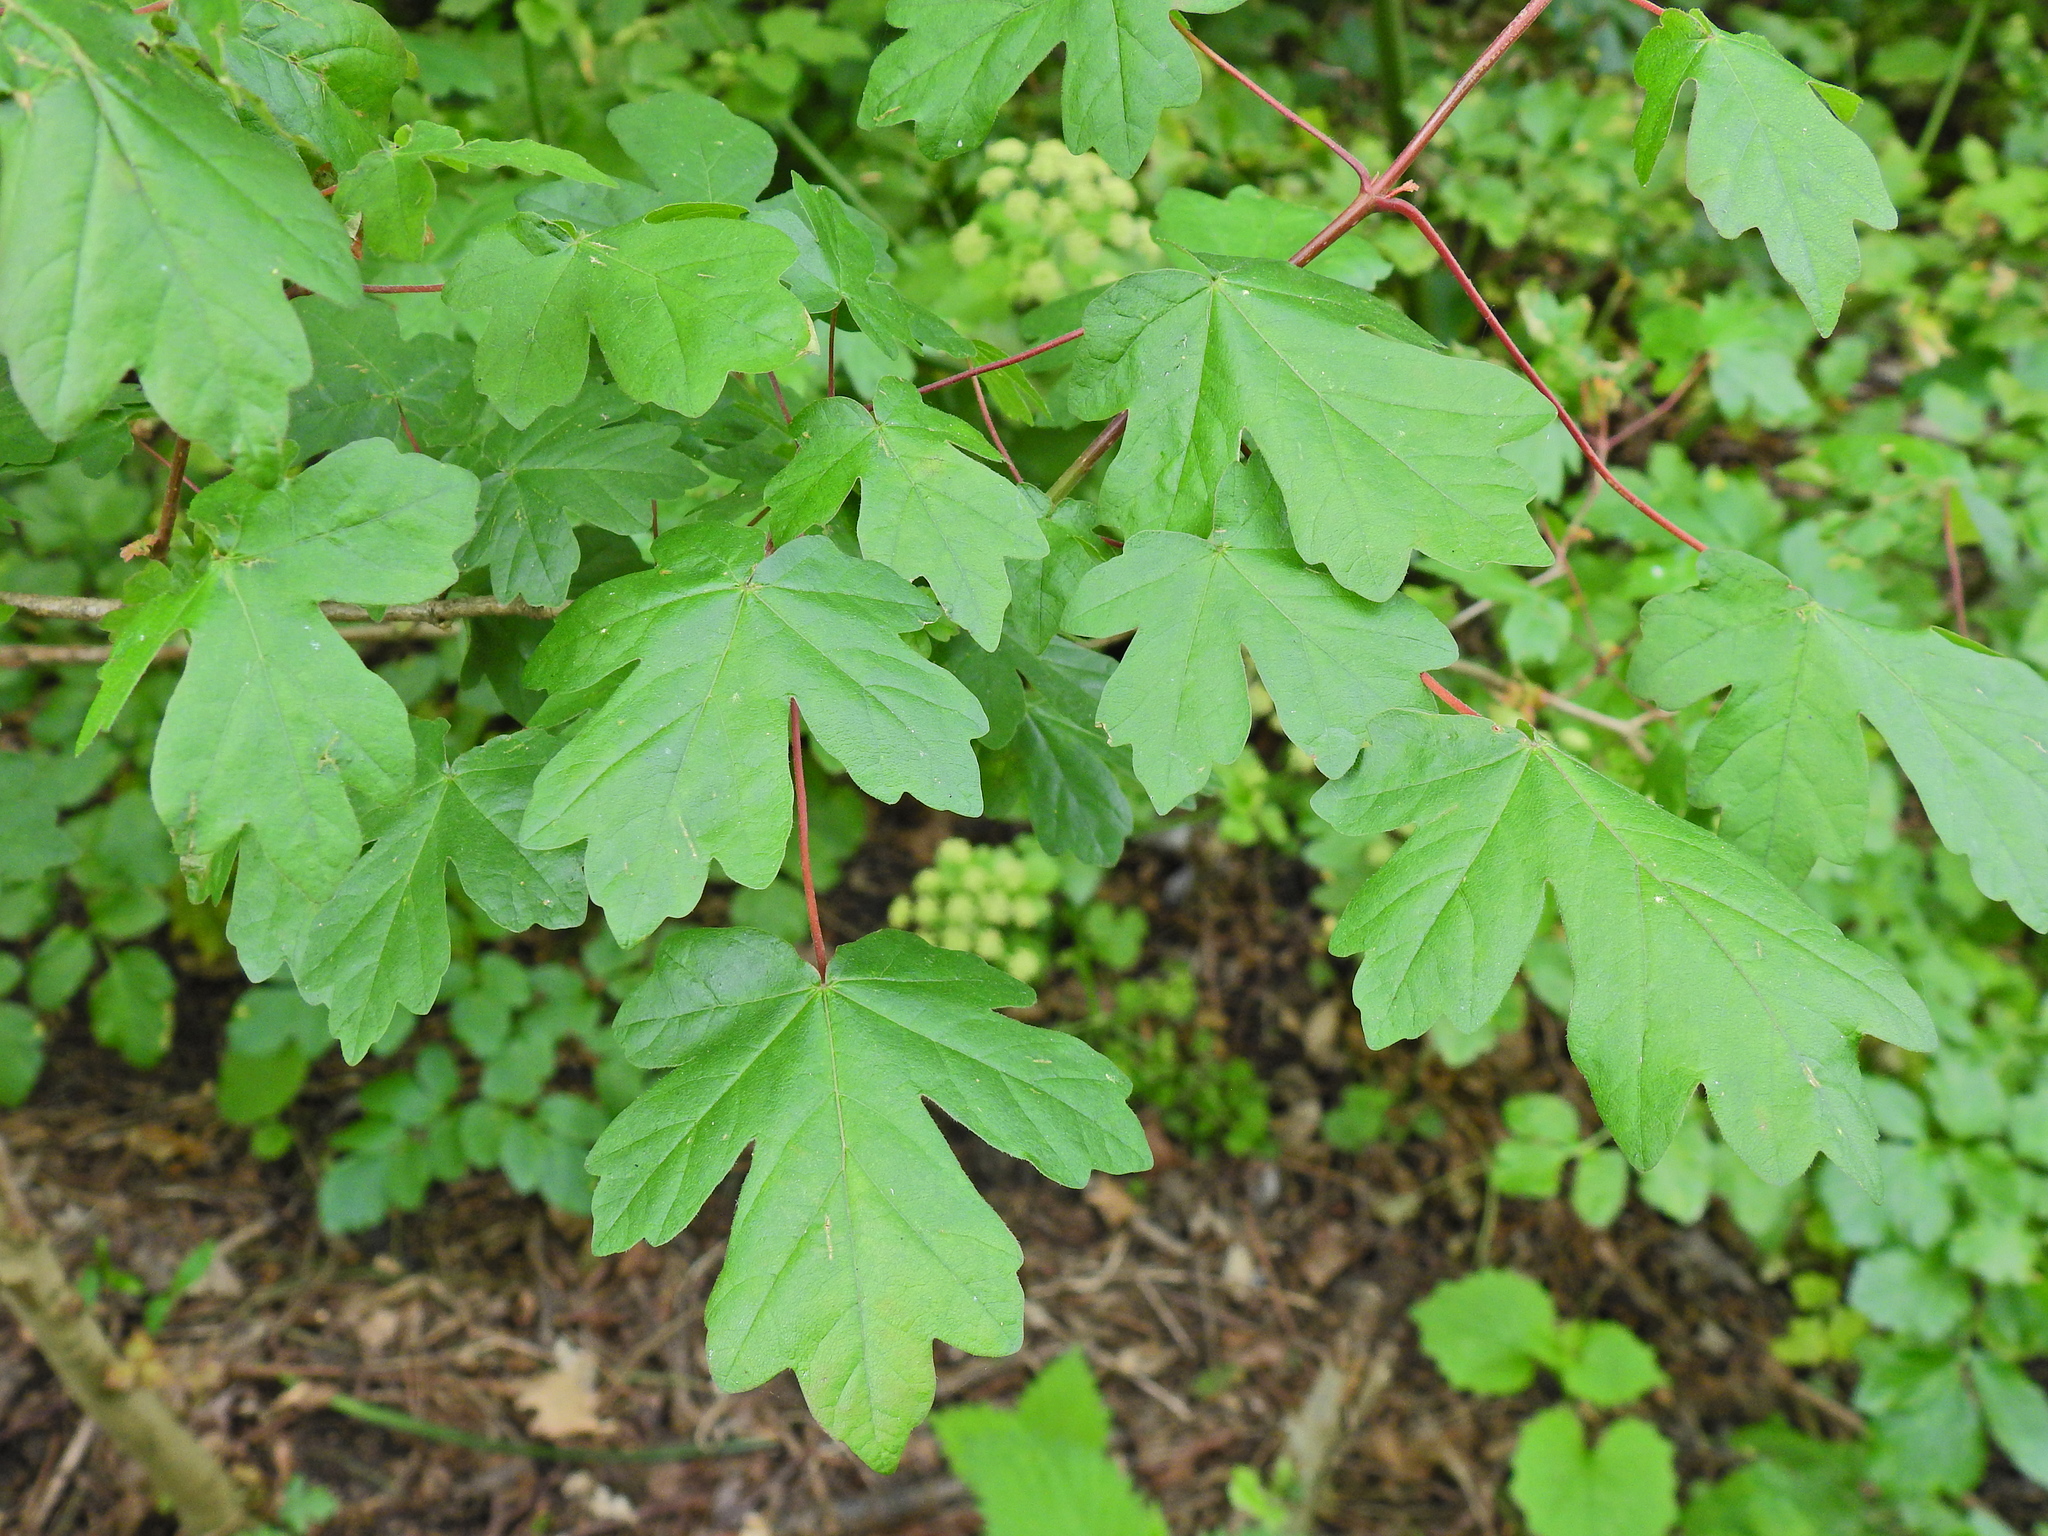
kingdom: Plantae
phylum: Tracheophyta
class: Magnoliopsida
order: Sapindales
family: Sapindaceae
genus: Acer
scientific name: Acer campestre
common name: Field maple
